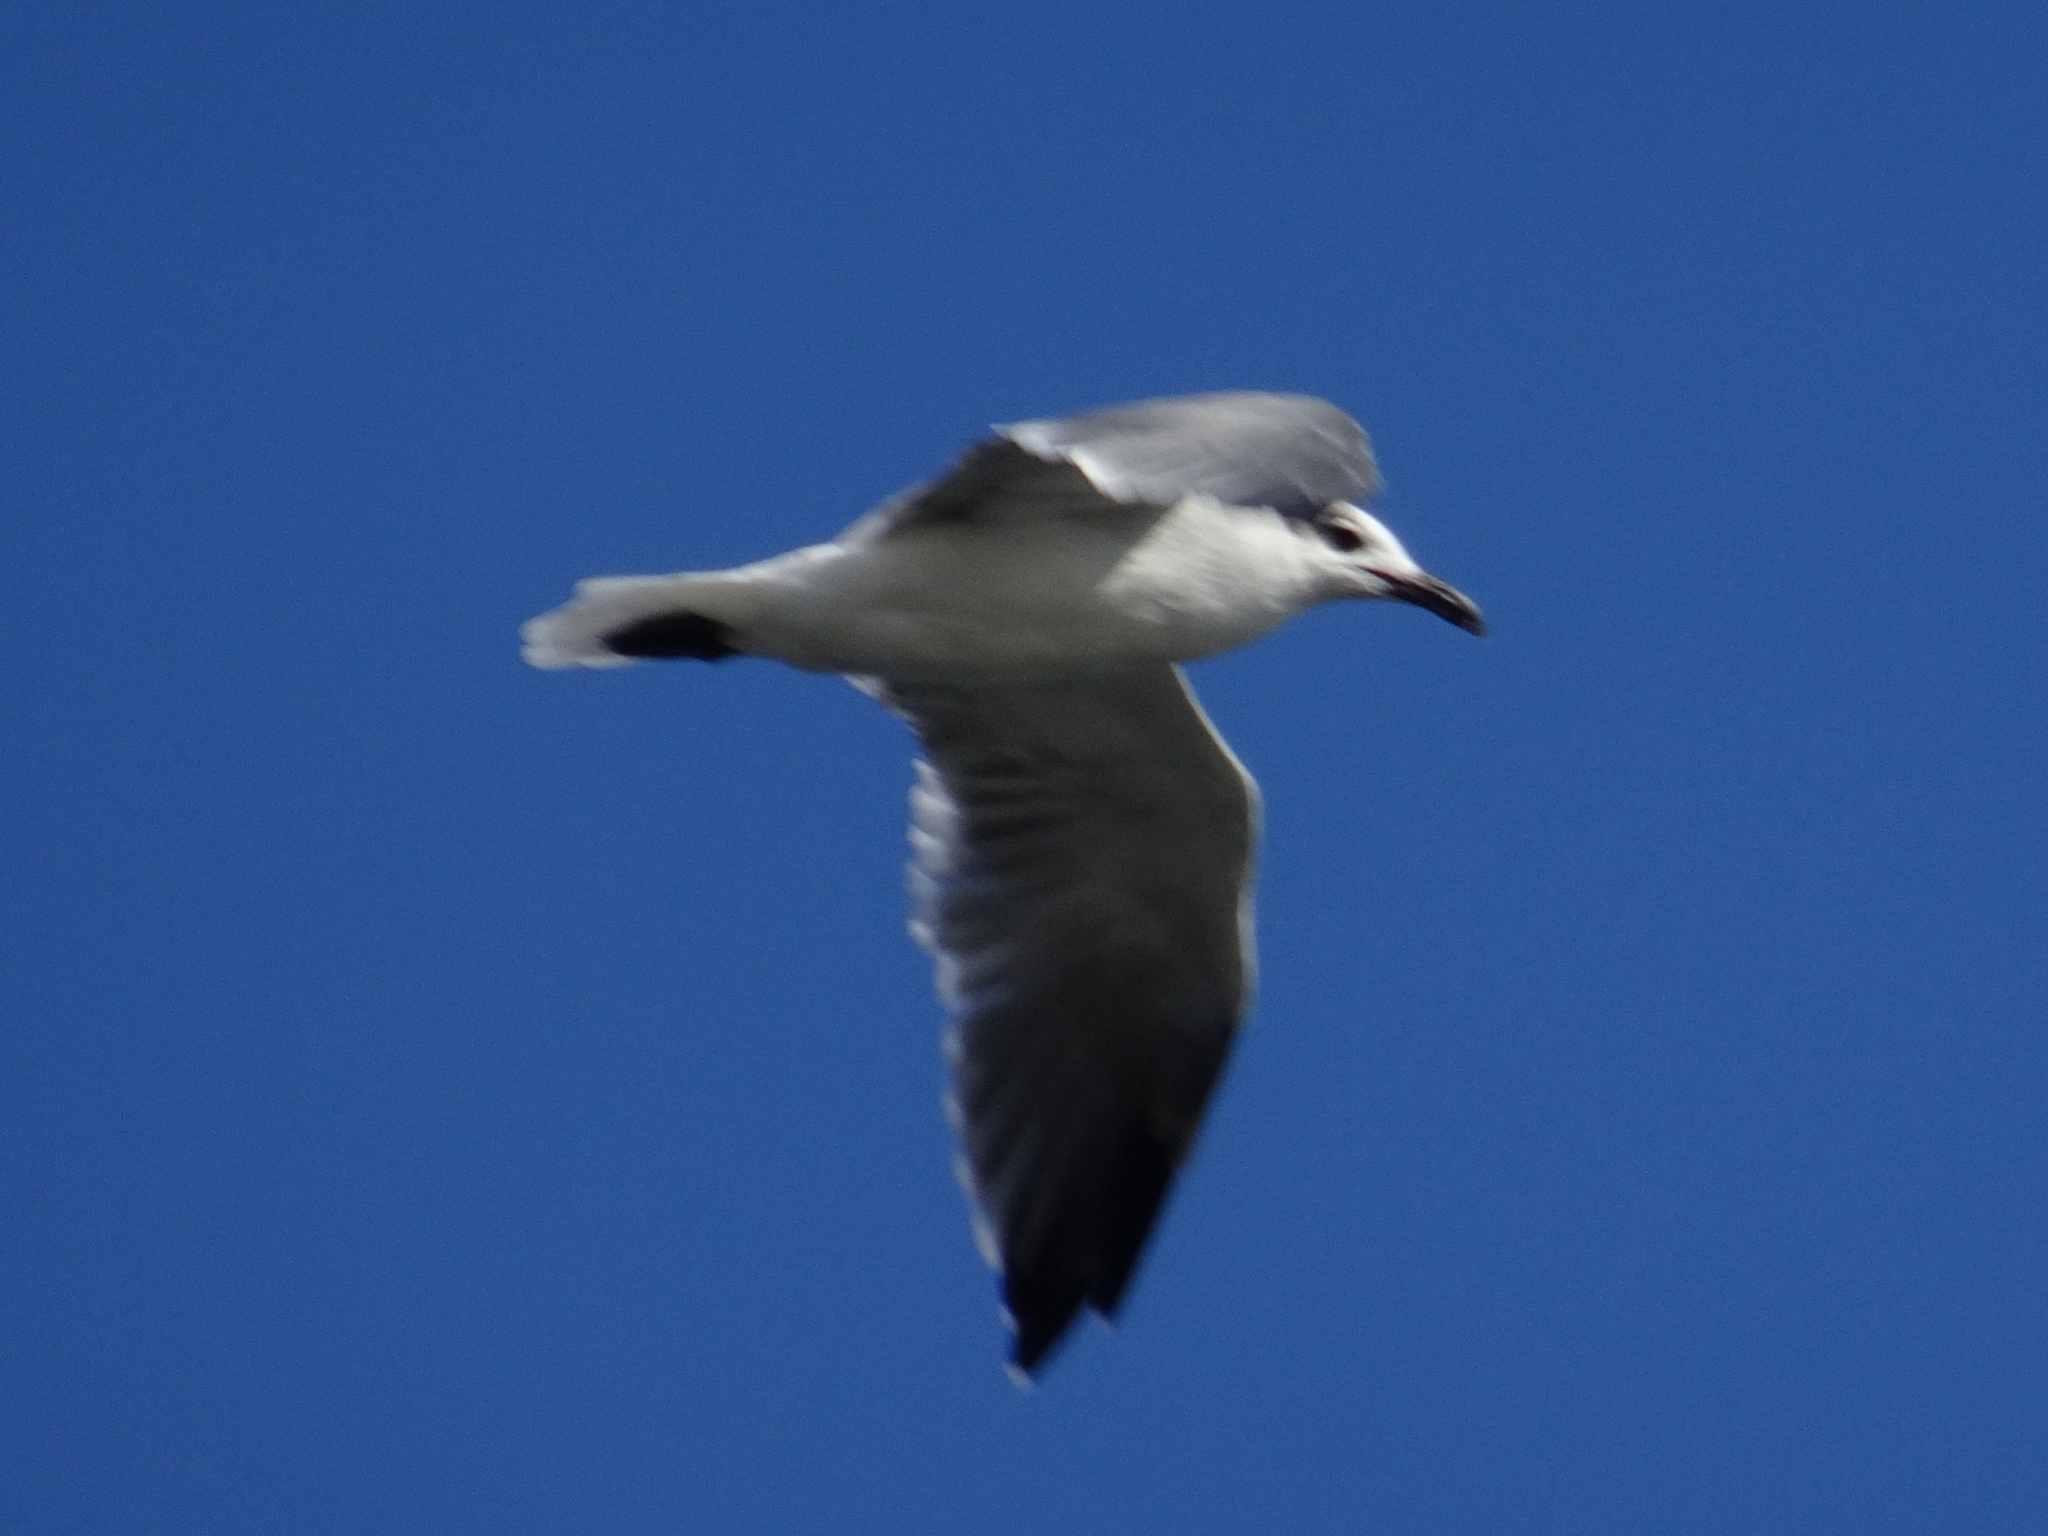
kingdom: Animalia
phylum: Chordata
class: Aves
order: Charadriiformes
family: Laridae
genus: Leucophaeus
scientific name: Leucophaeus atricilla
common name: Laughing gull
